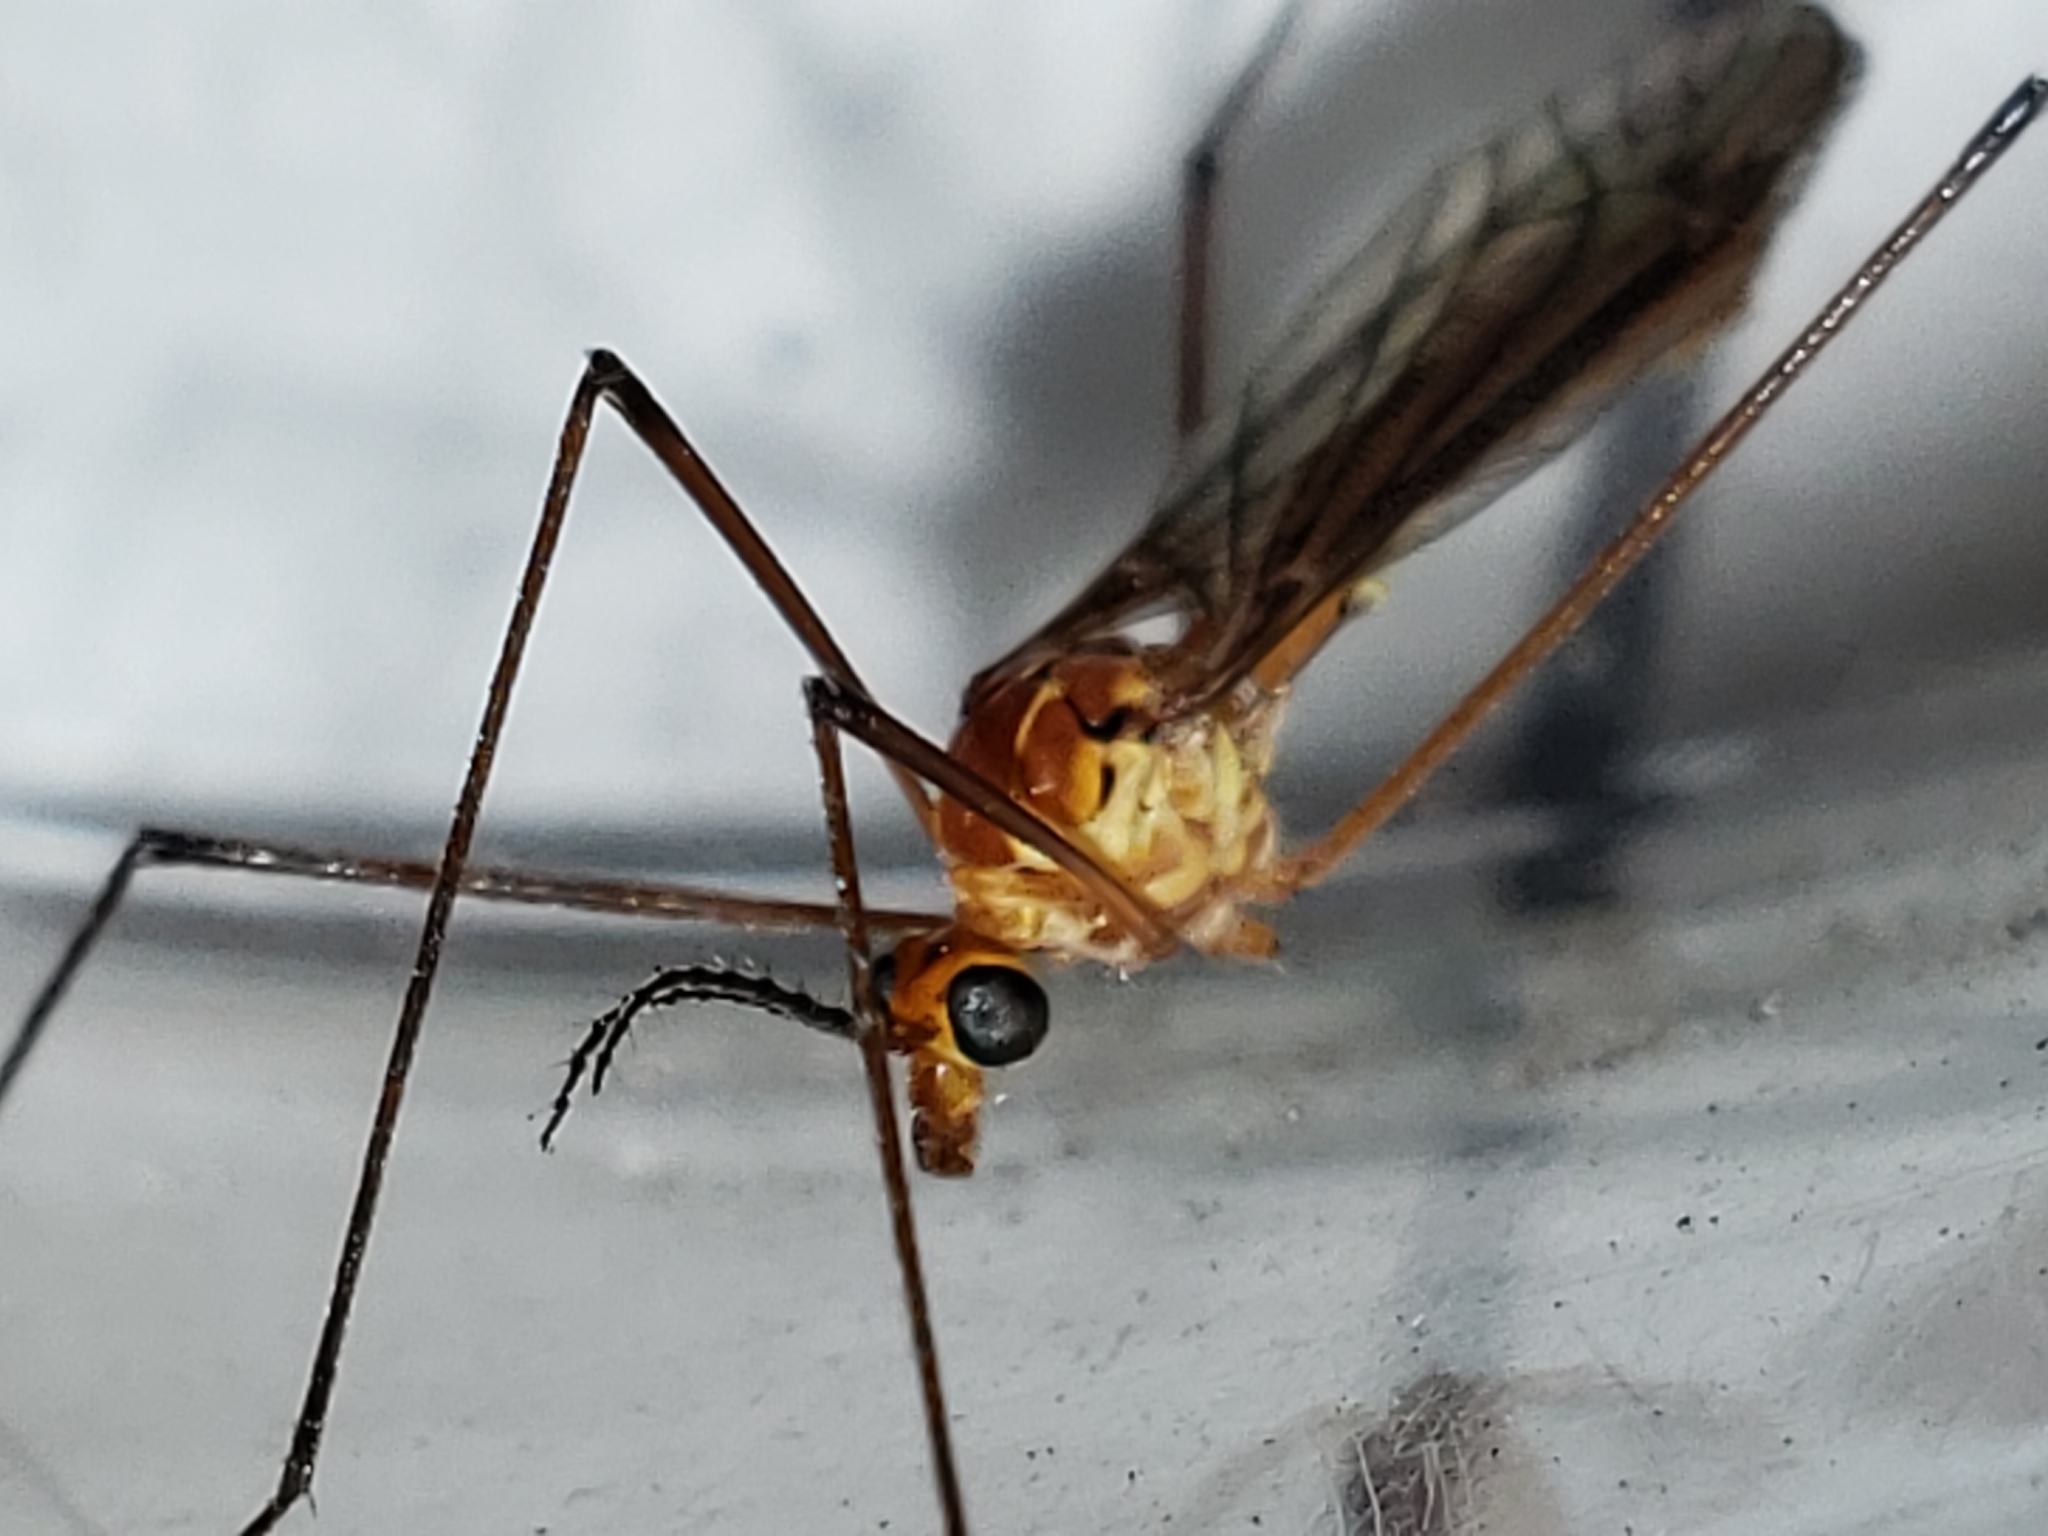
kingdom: Animalia
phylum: Arthropoda
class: Insecta
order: Diptera
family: Tipulidae
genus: Nephrotoma
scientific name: Nephrotoma suturalis
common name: Cranefly
